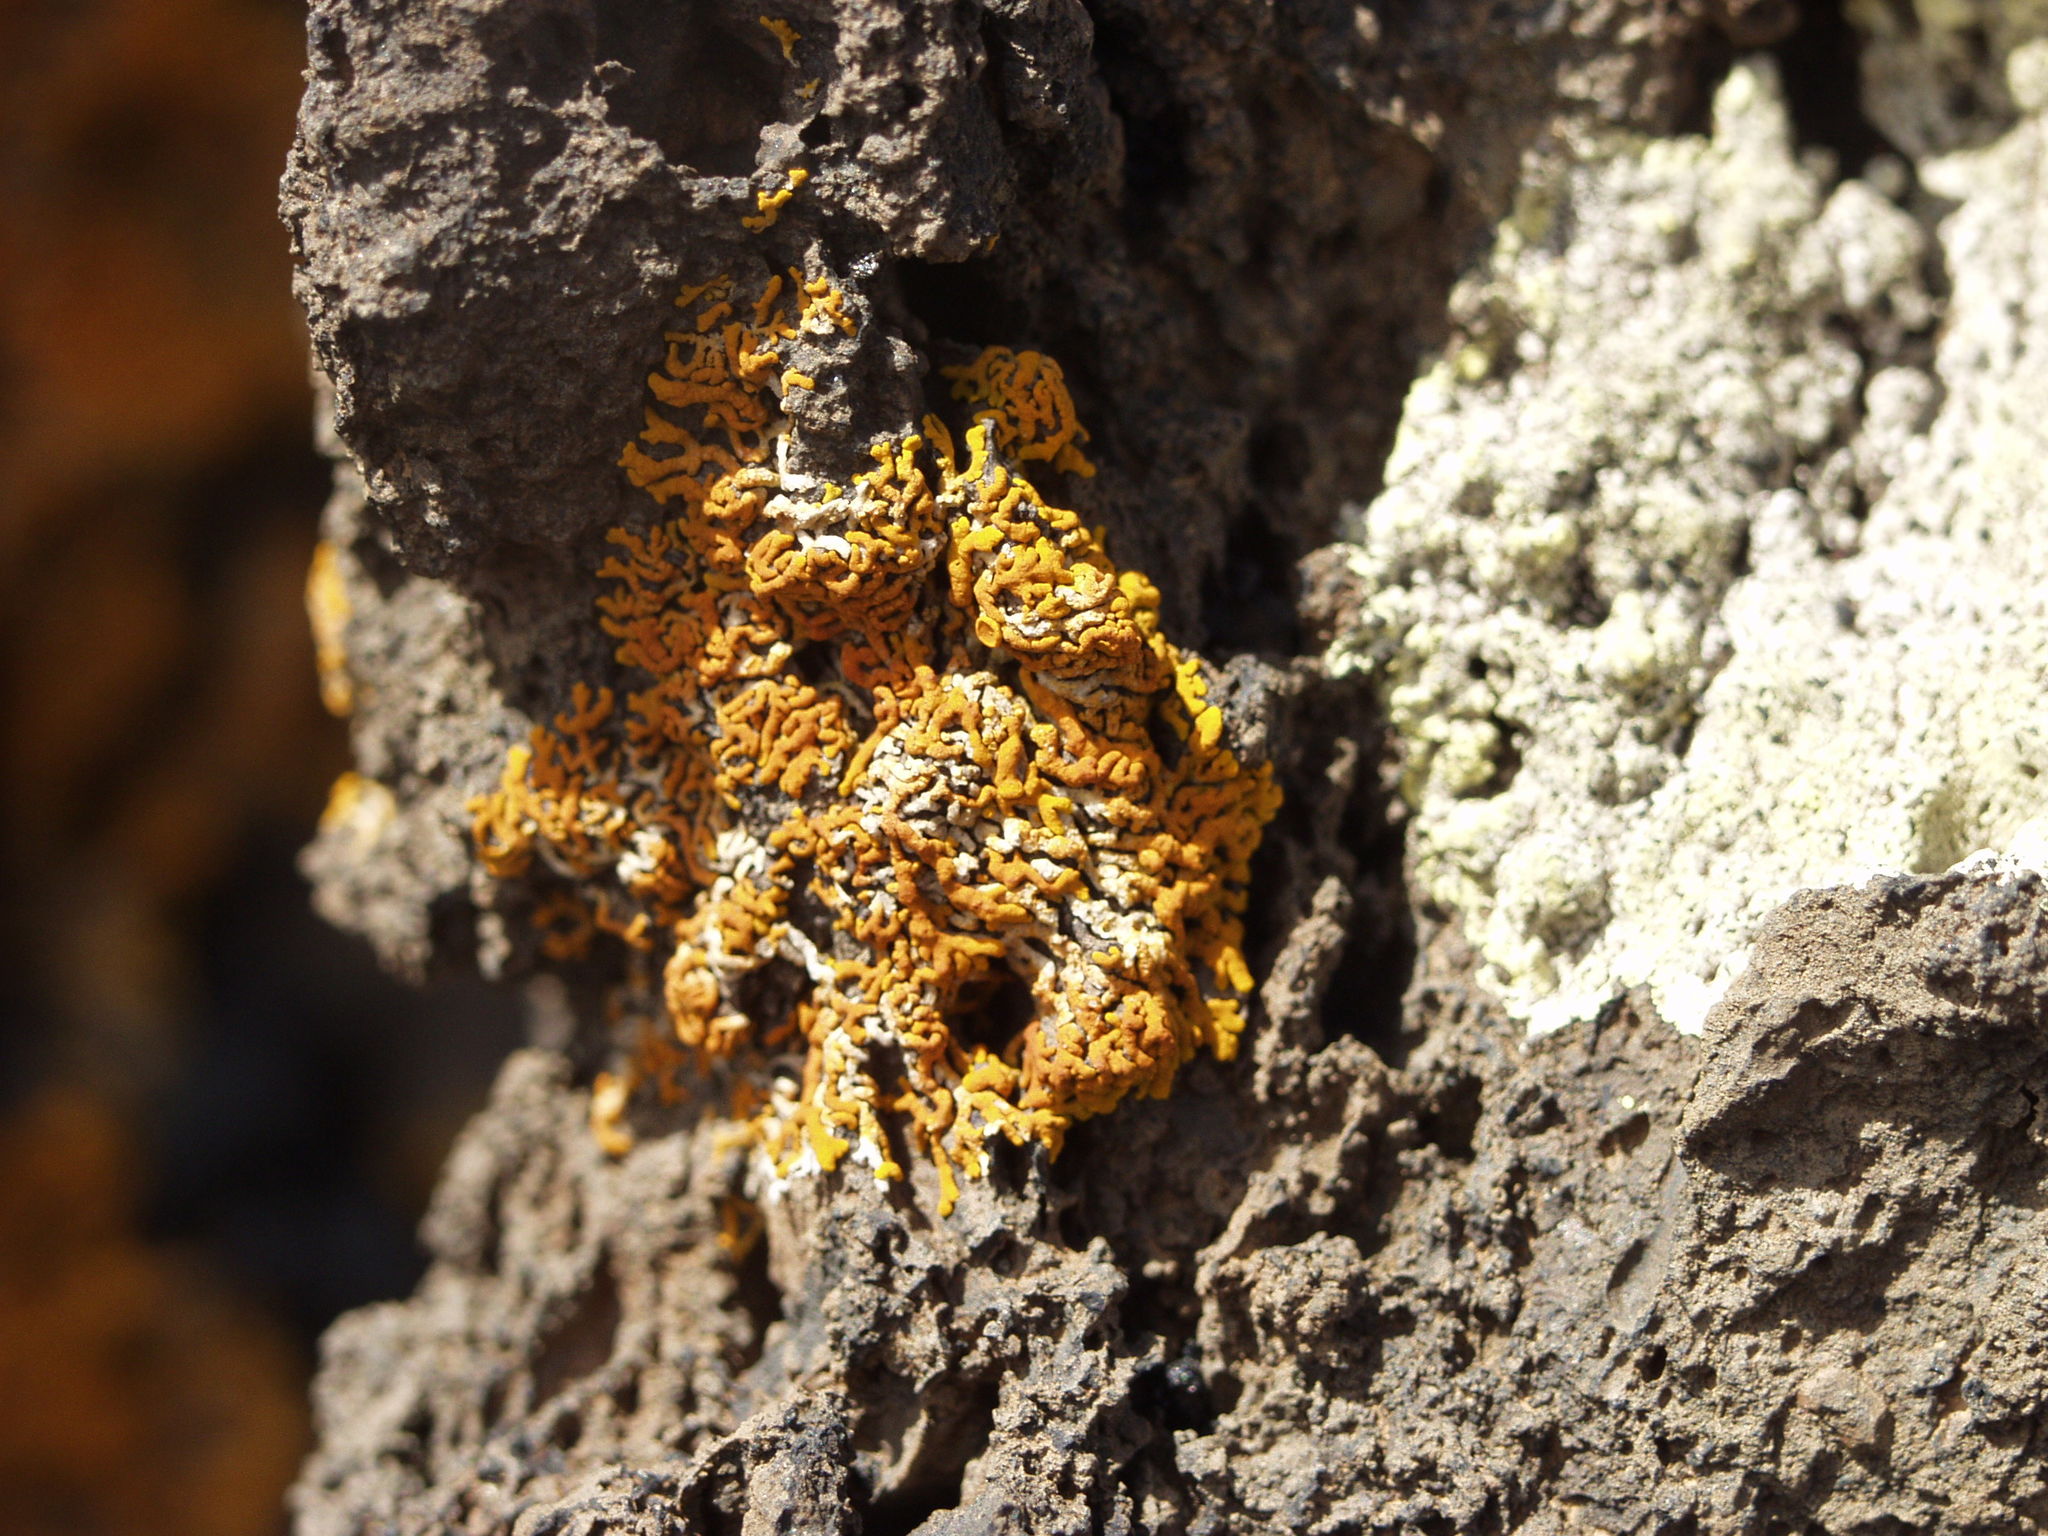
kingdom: Fungi
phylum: Ascomycota
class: Lecanoromycetes
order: Teloschistales
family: Teloschistaceae
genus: Xanthoria
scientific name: Xanthoria elegans
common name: Elegant sunburst lichen
